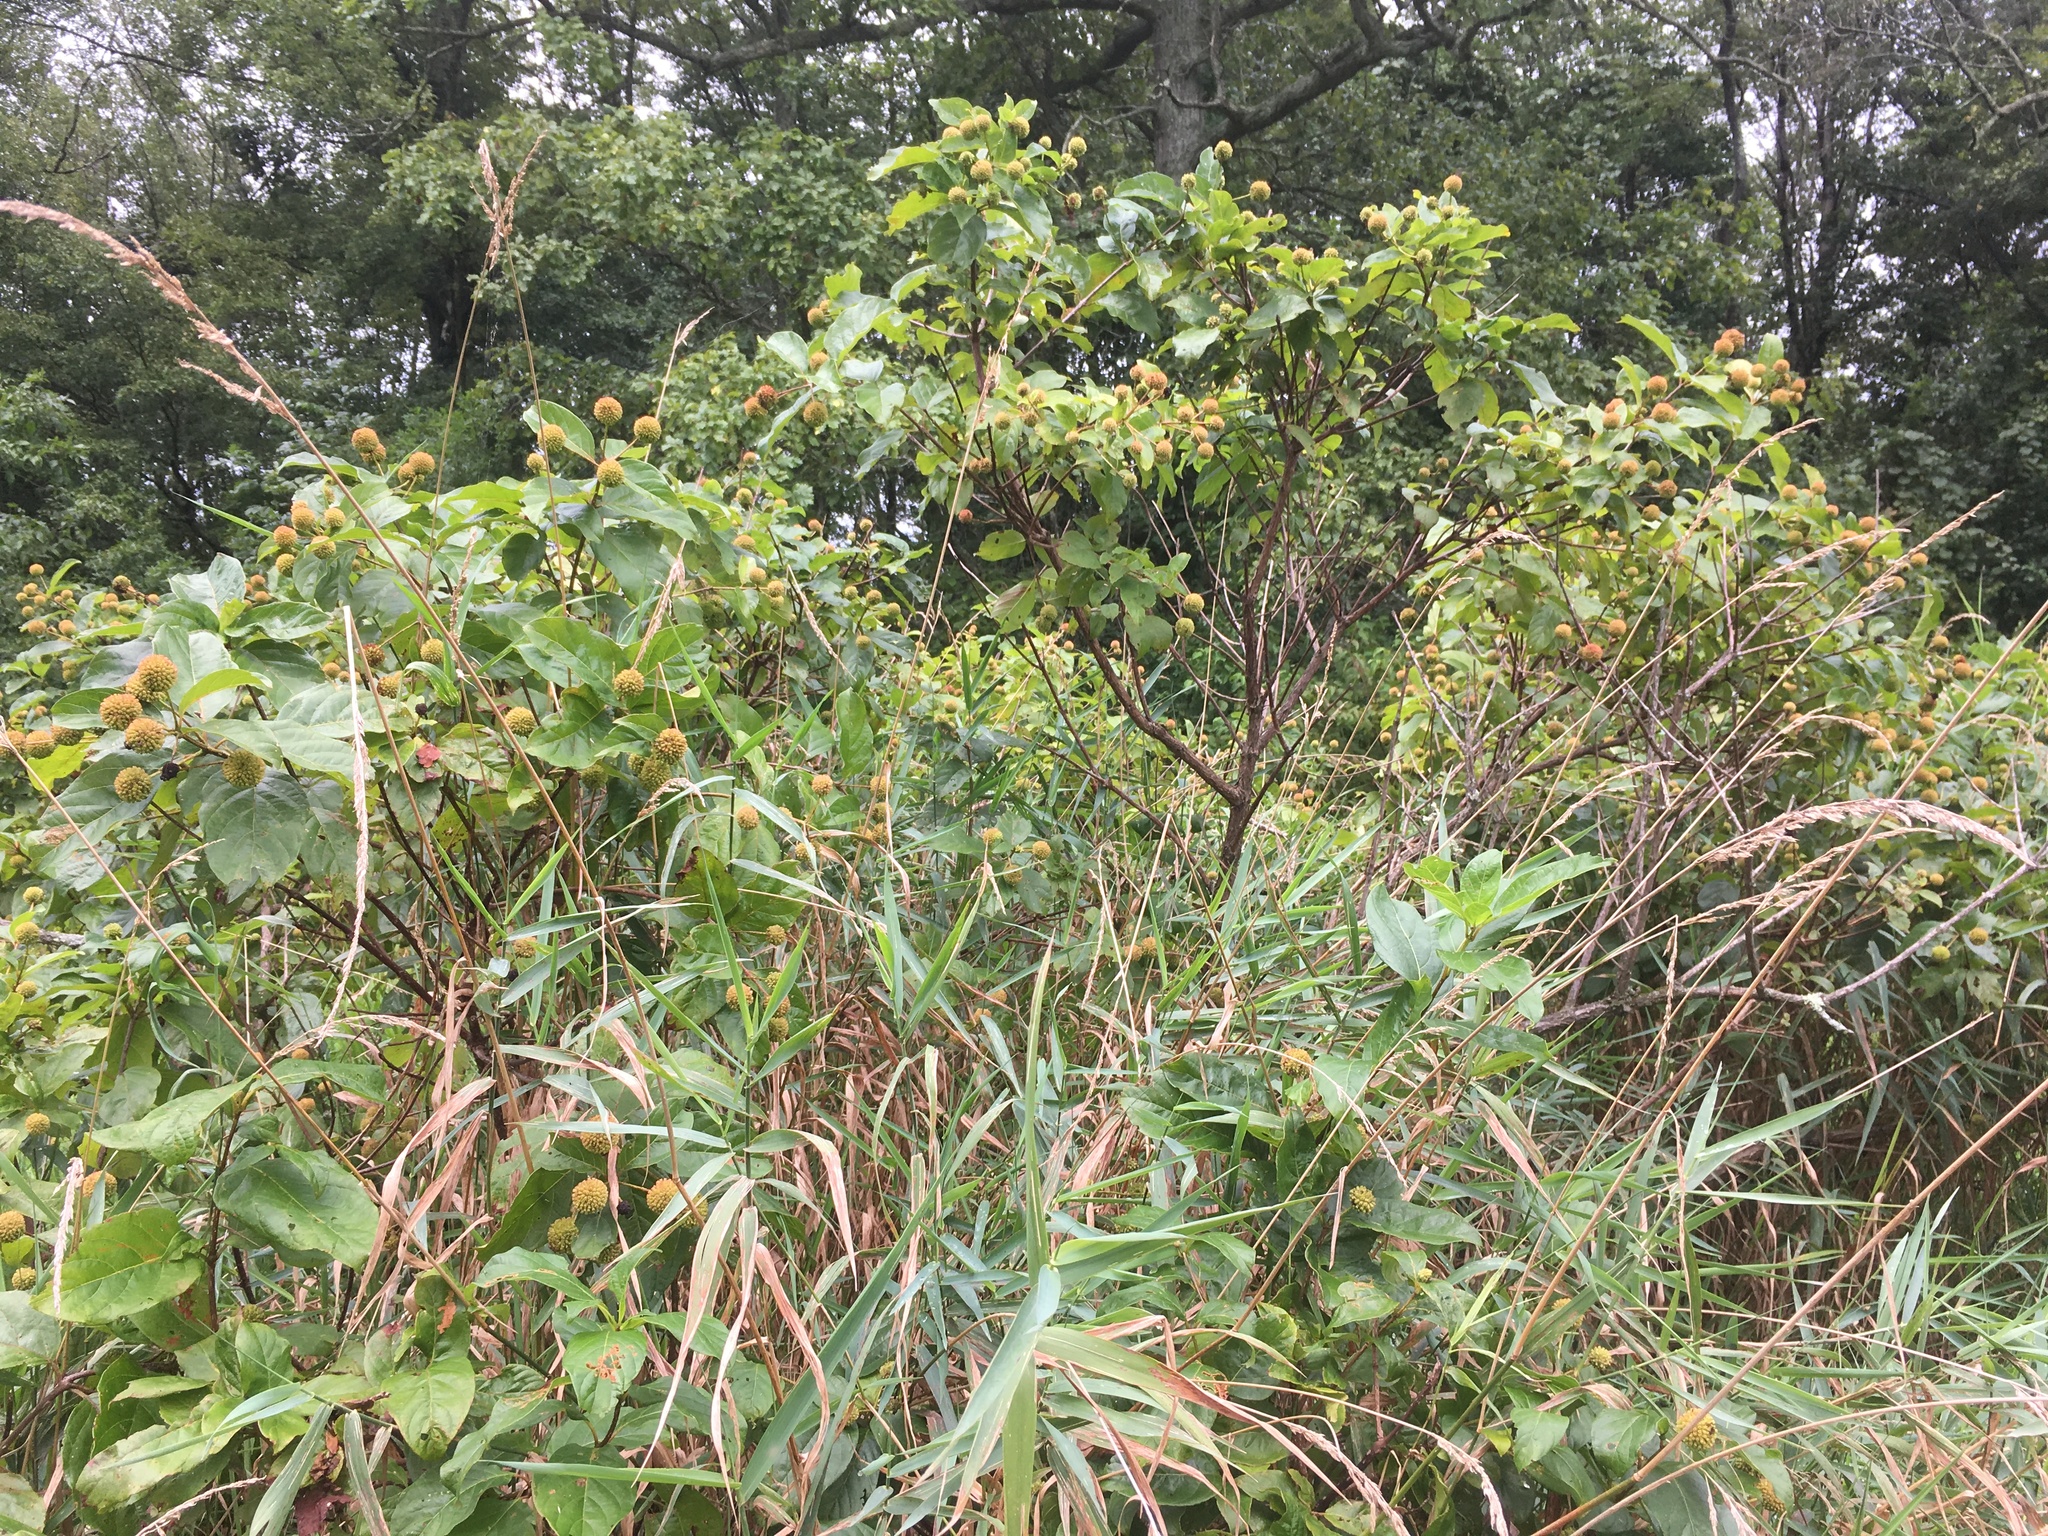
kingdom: Plantae
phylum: Tracheophyta
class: Magnoliopsida
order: Gentianales
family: Rubiaceae
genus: Cephalanthus
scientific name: Cephalanthus occidentalis
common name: Button-willow
